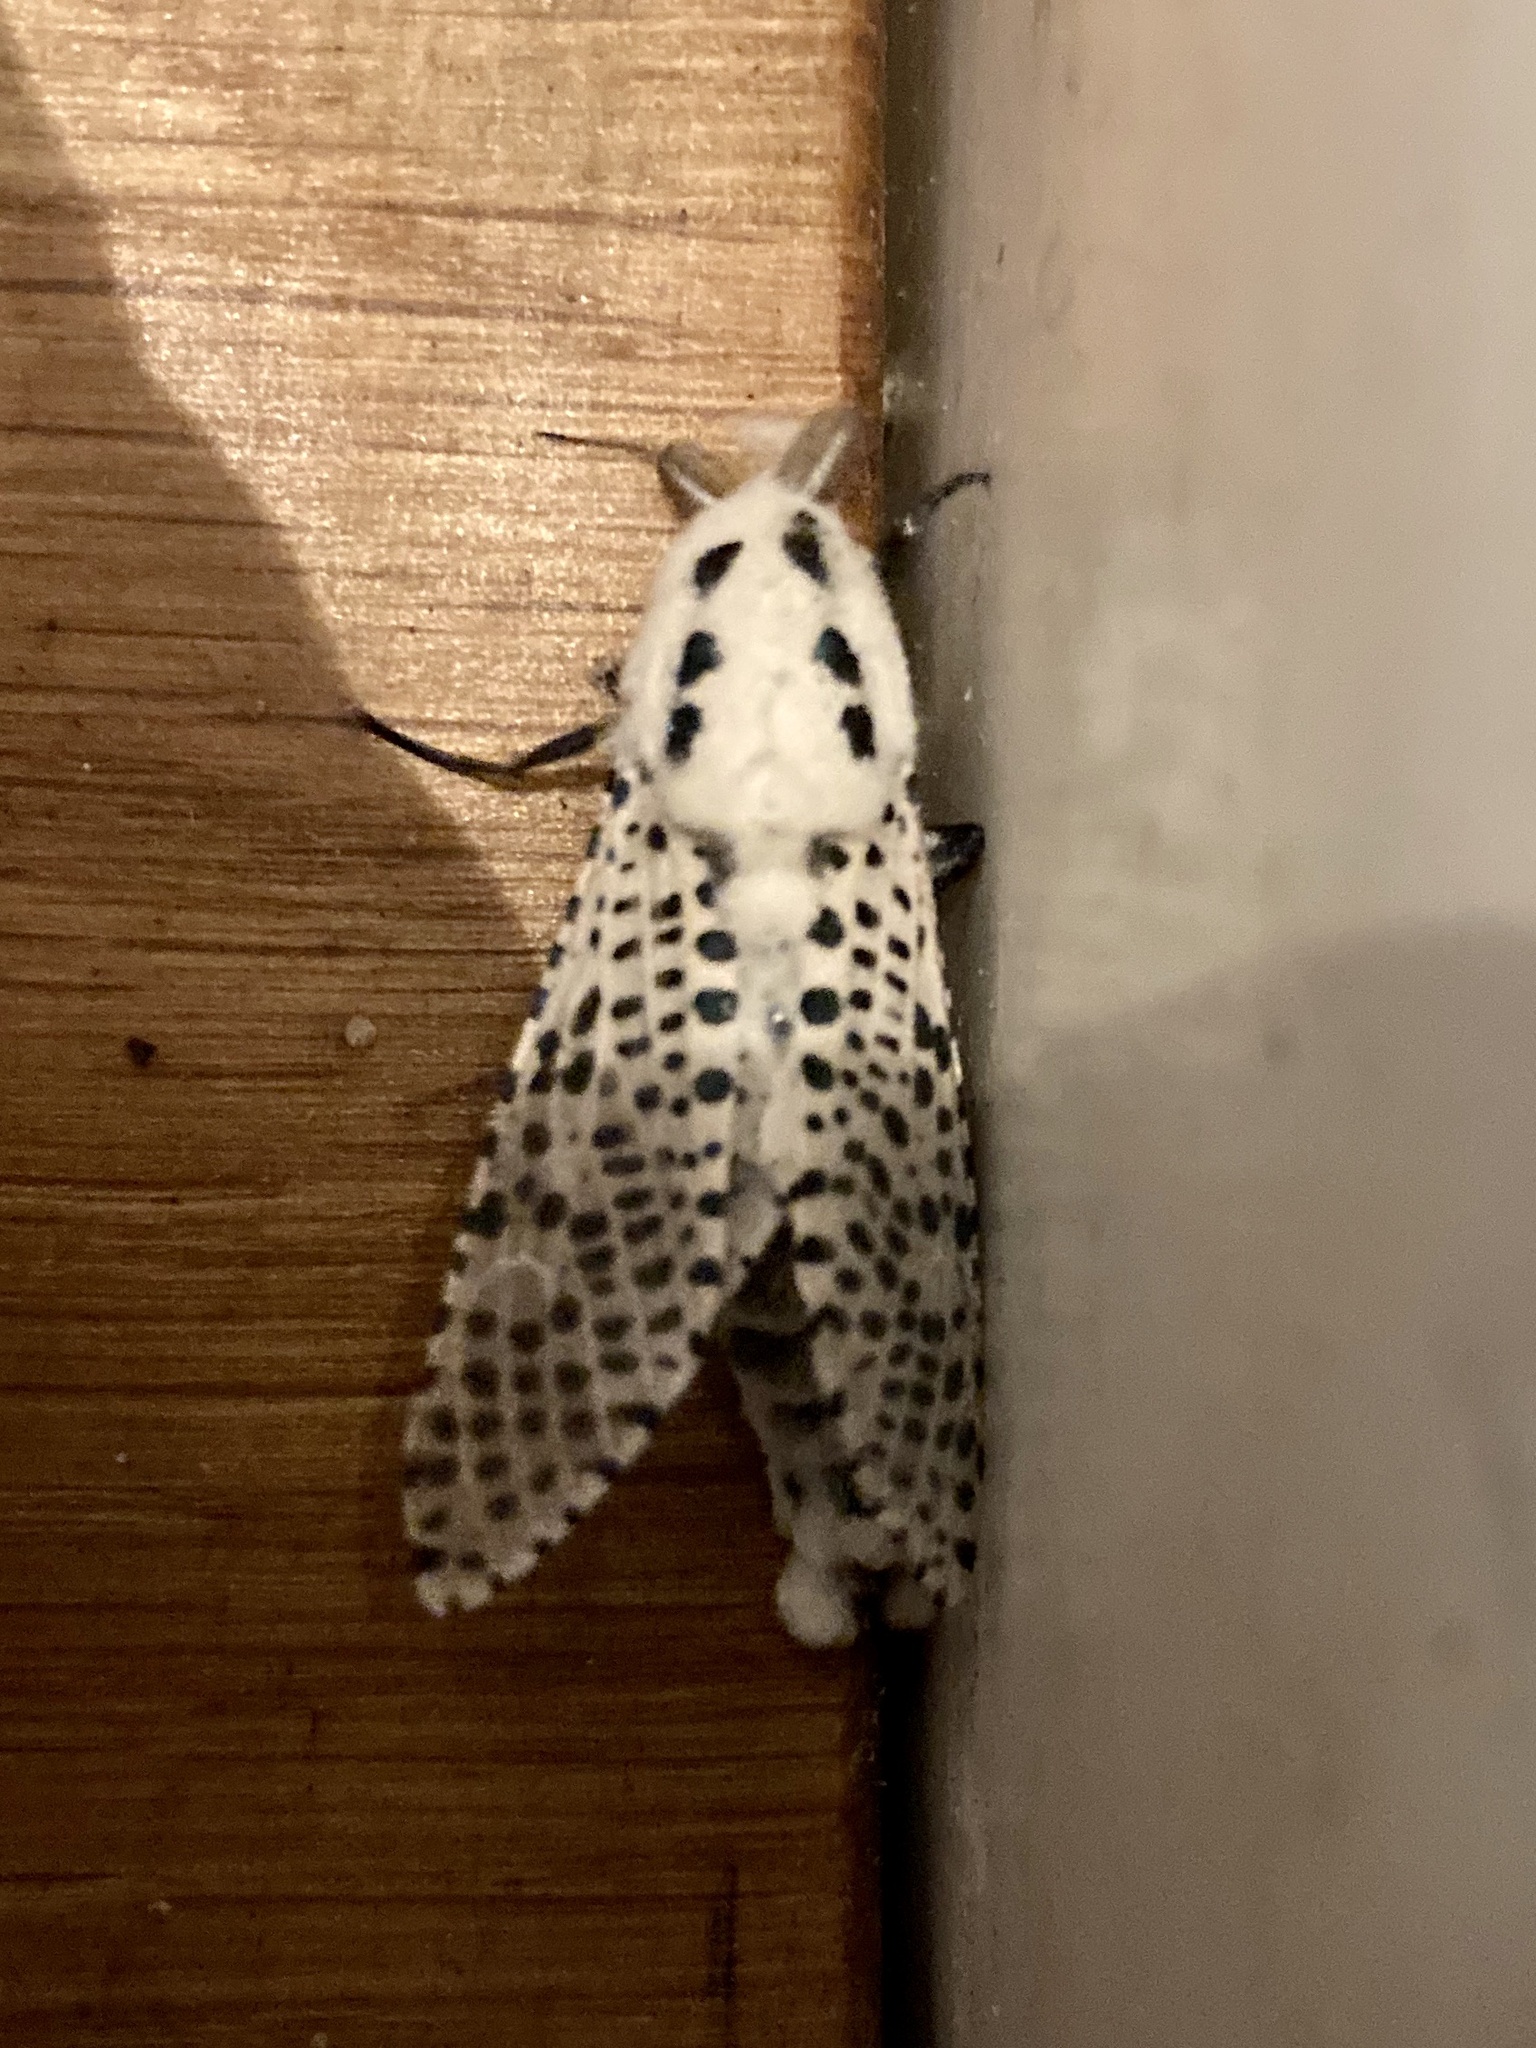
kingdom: Animalia
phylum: Arthropoda
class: Insecta
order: Lepidoptera
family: Cossidae
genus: Zeuzera
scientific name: Zeuzera pyrina
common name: Leopard moth
